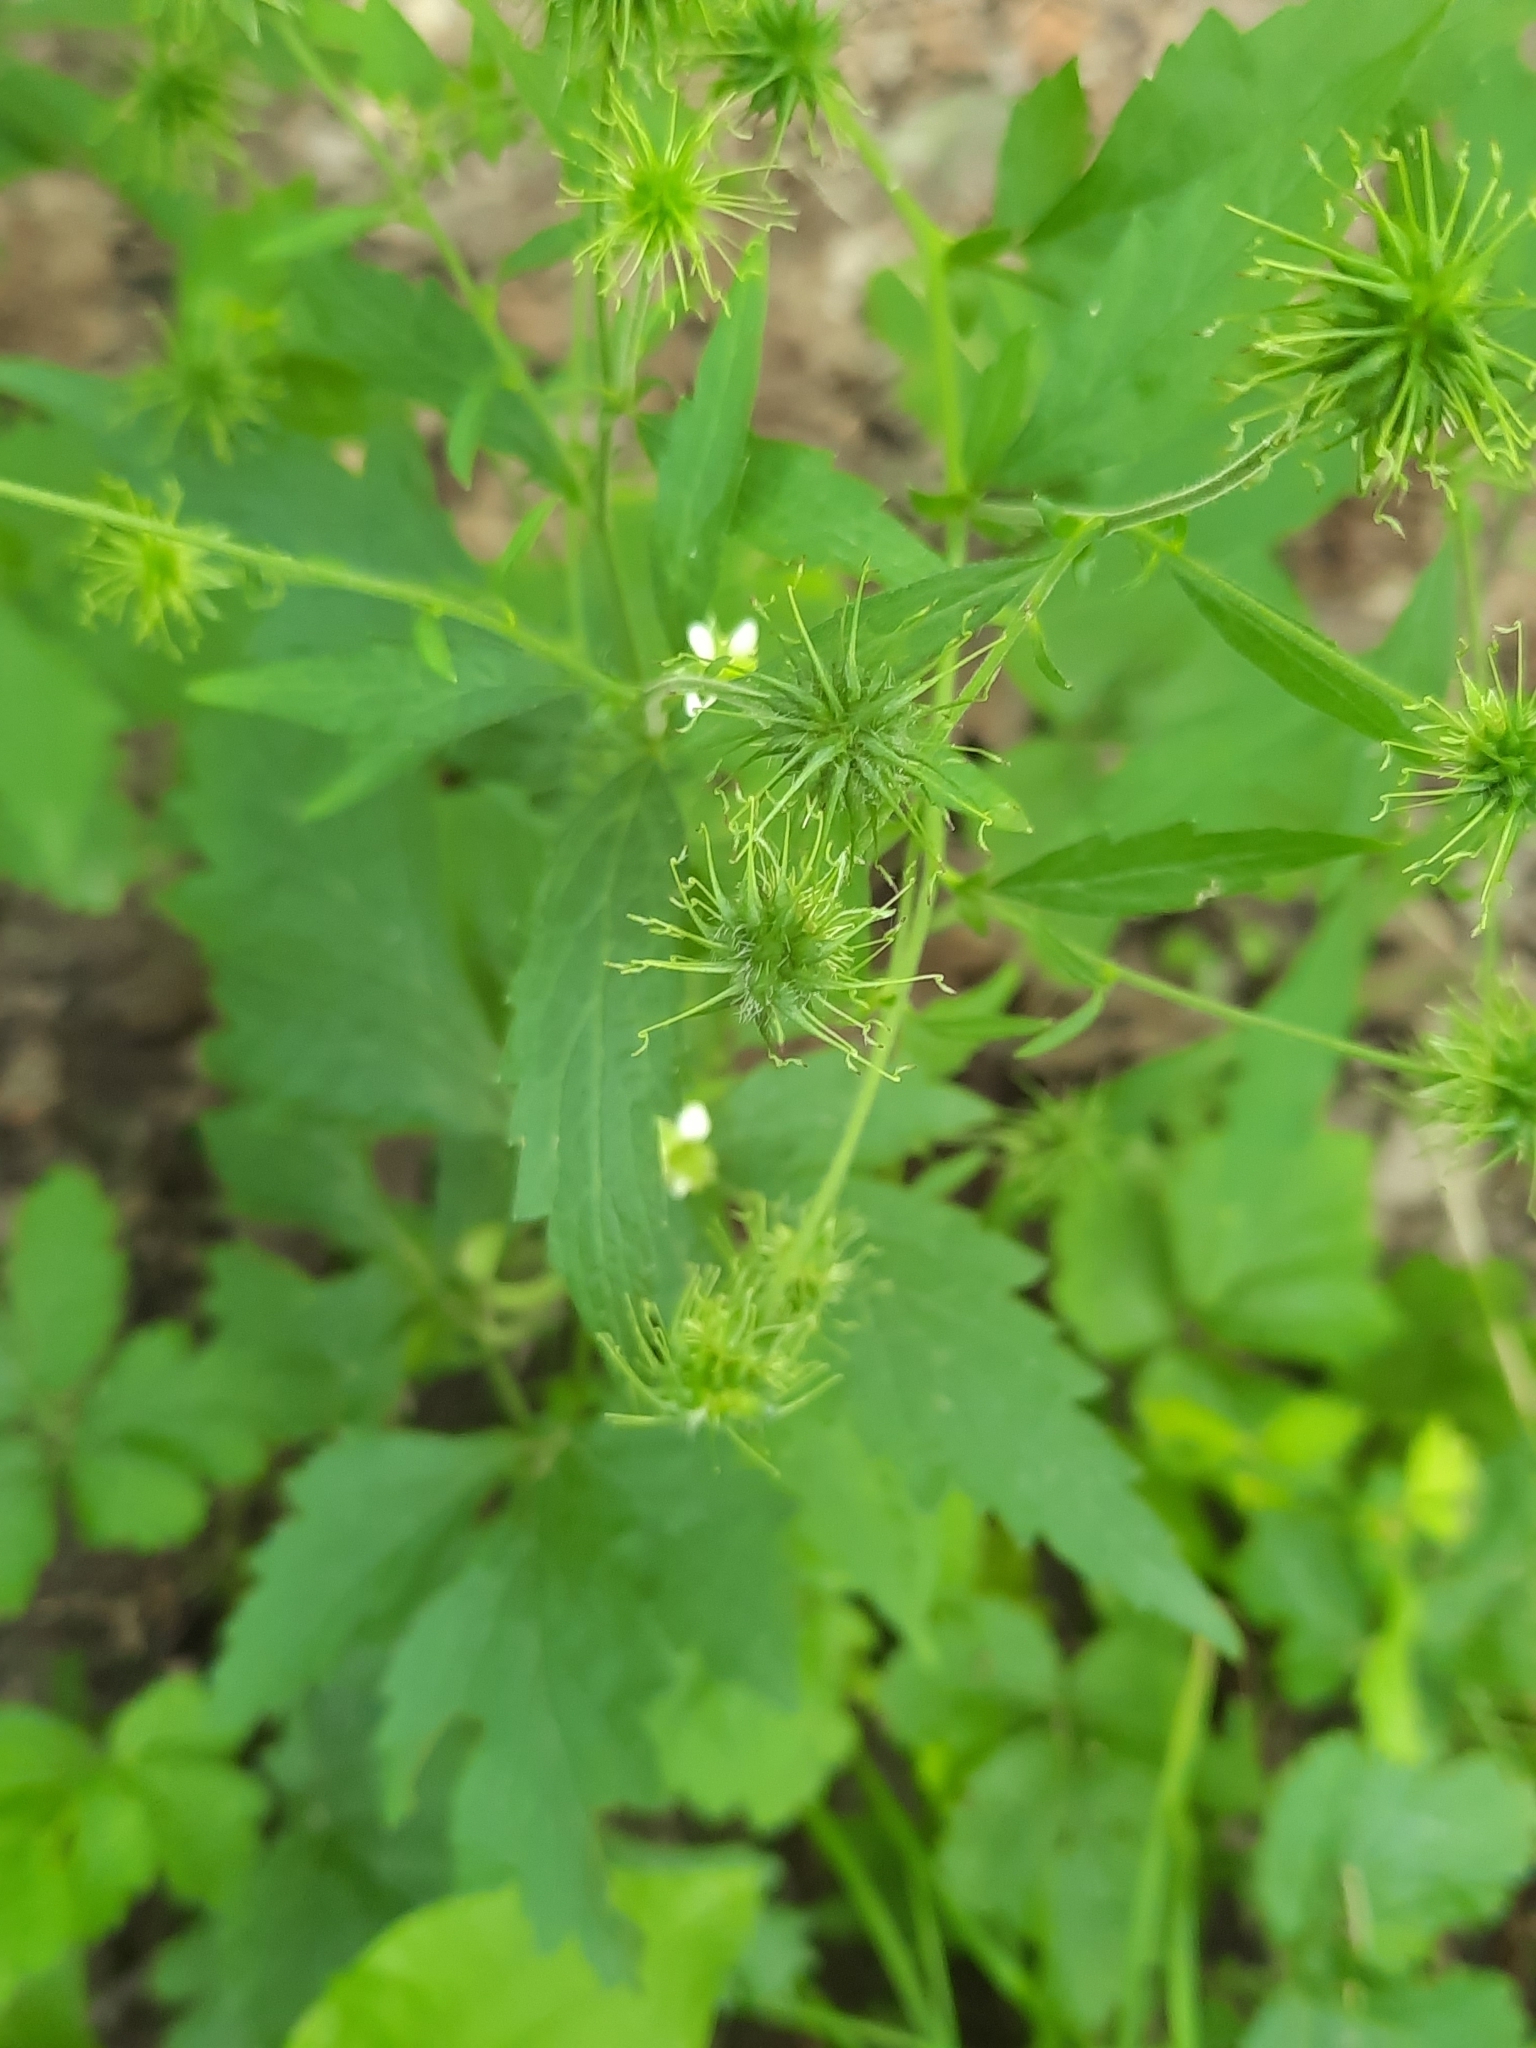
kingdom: Plantae
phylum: Tracheophyta
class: Magnoliopsida
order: Rosales
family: Rosaceae
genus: Geum
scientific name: Geum canadense
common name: White avens
